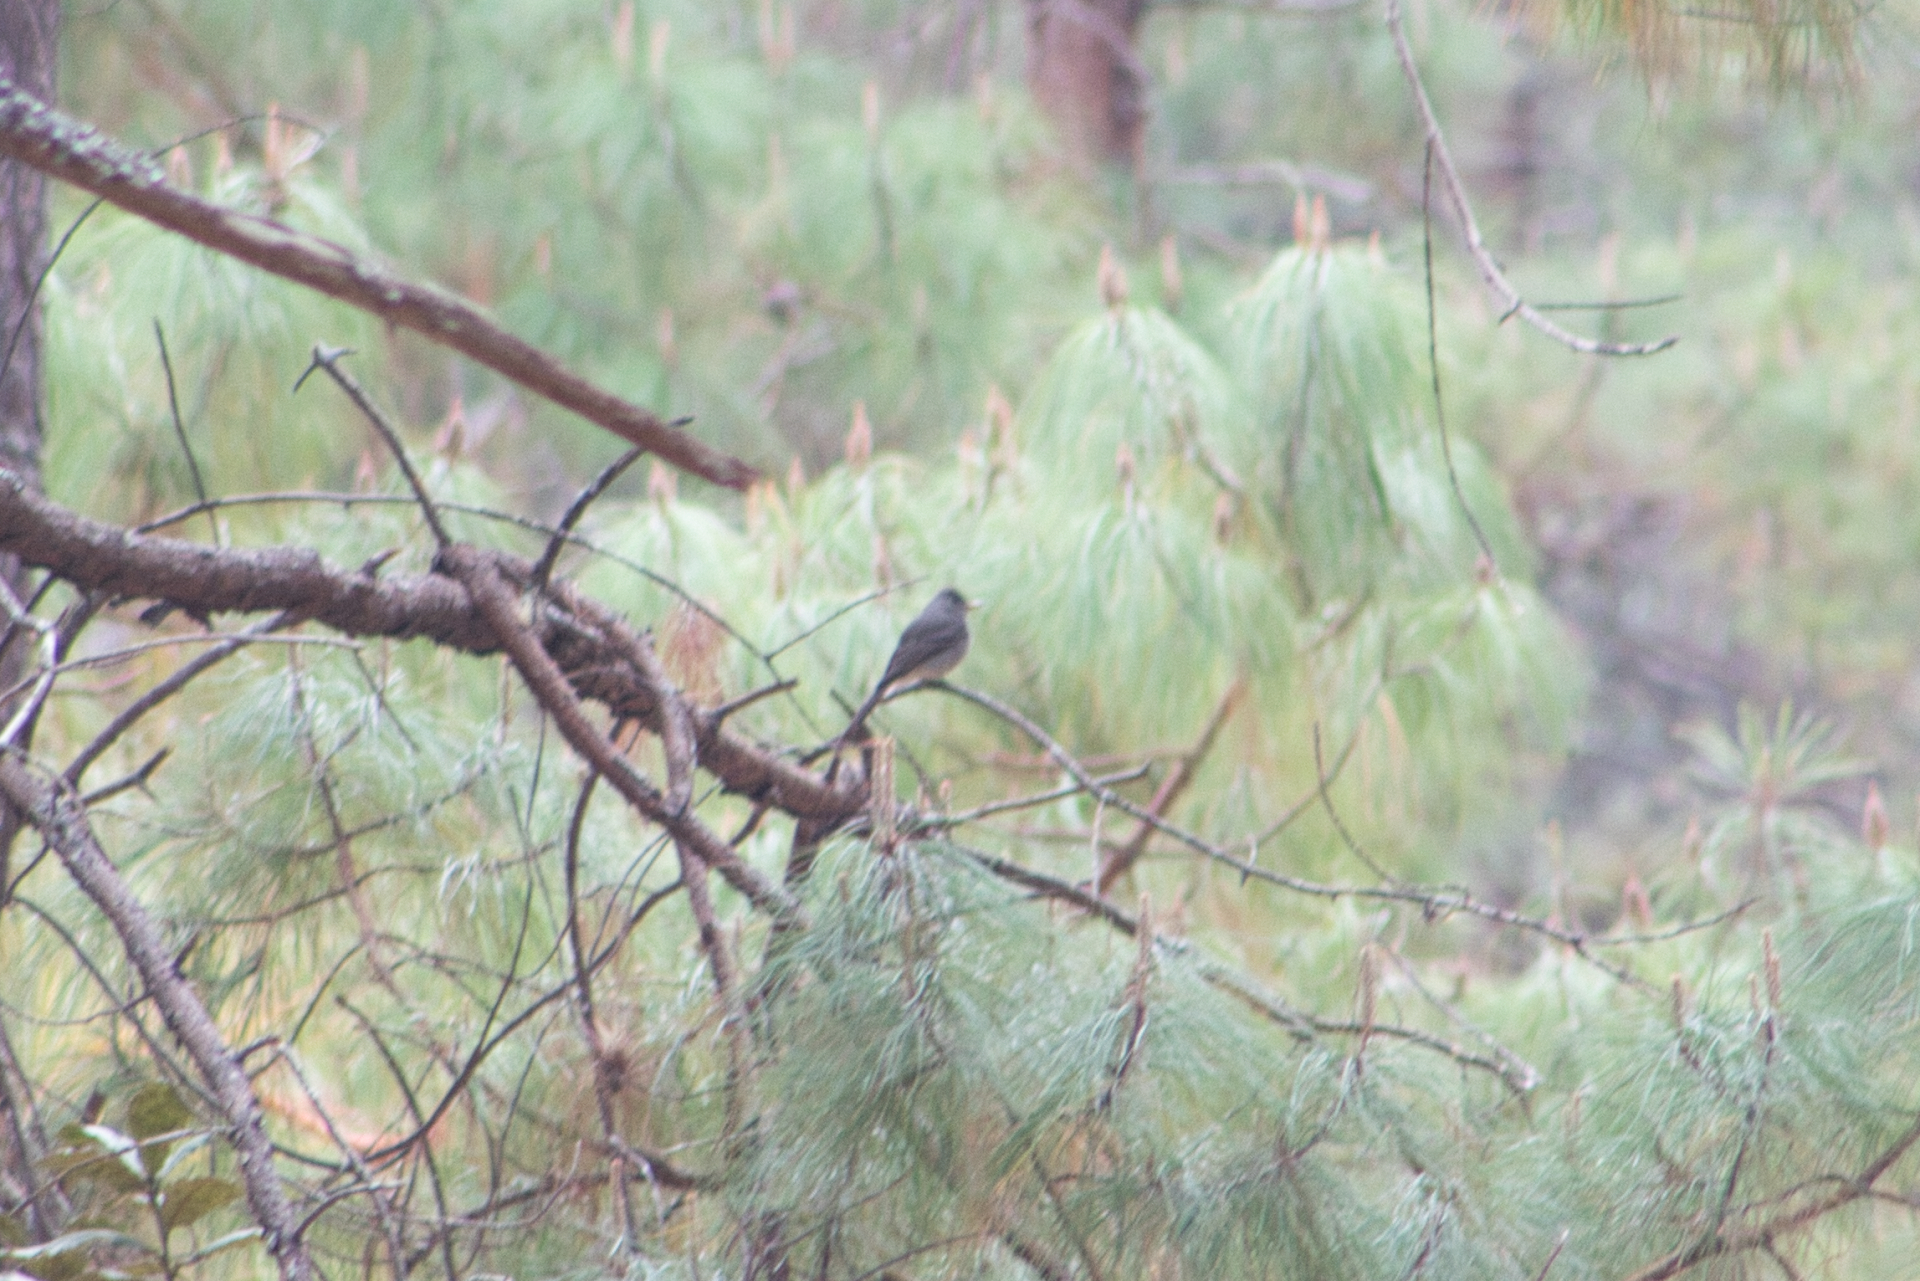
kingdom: Animalia
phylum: Chordata
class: Aves
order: Passeriformes
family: Tyrannidae
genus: Contopus
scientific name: Contopus pertinax
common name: Greater pewee
